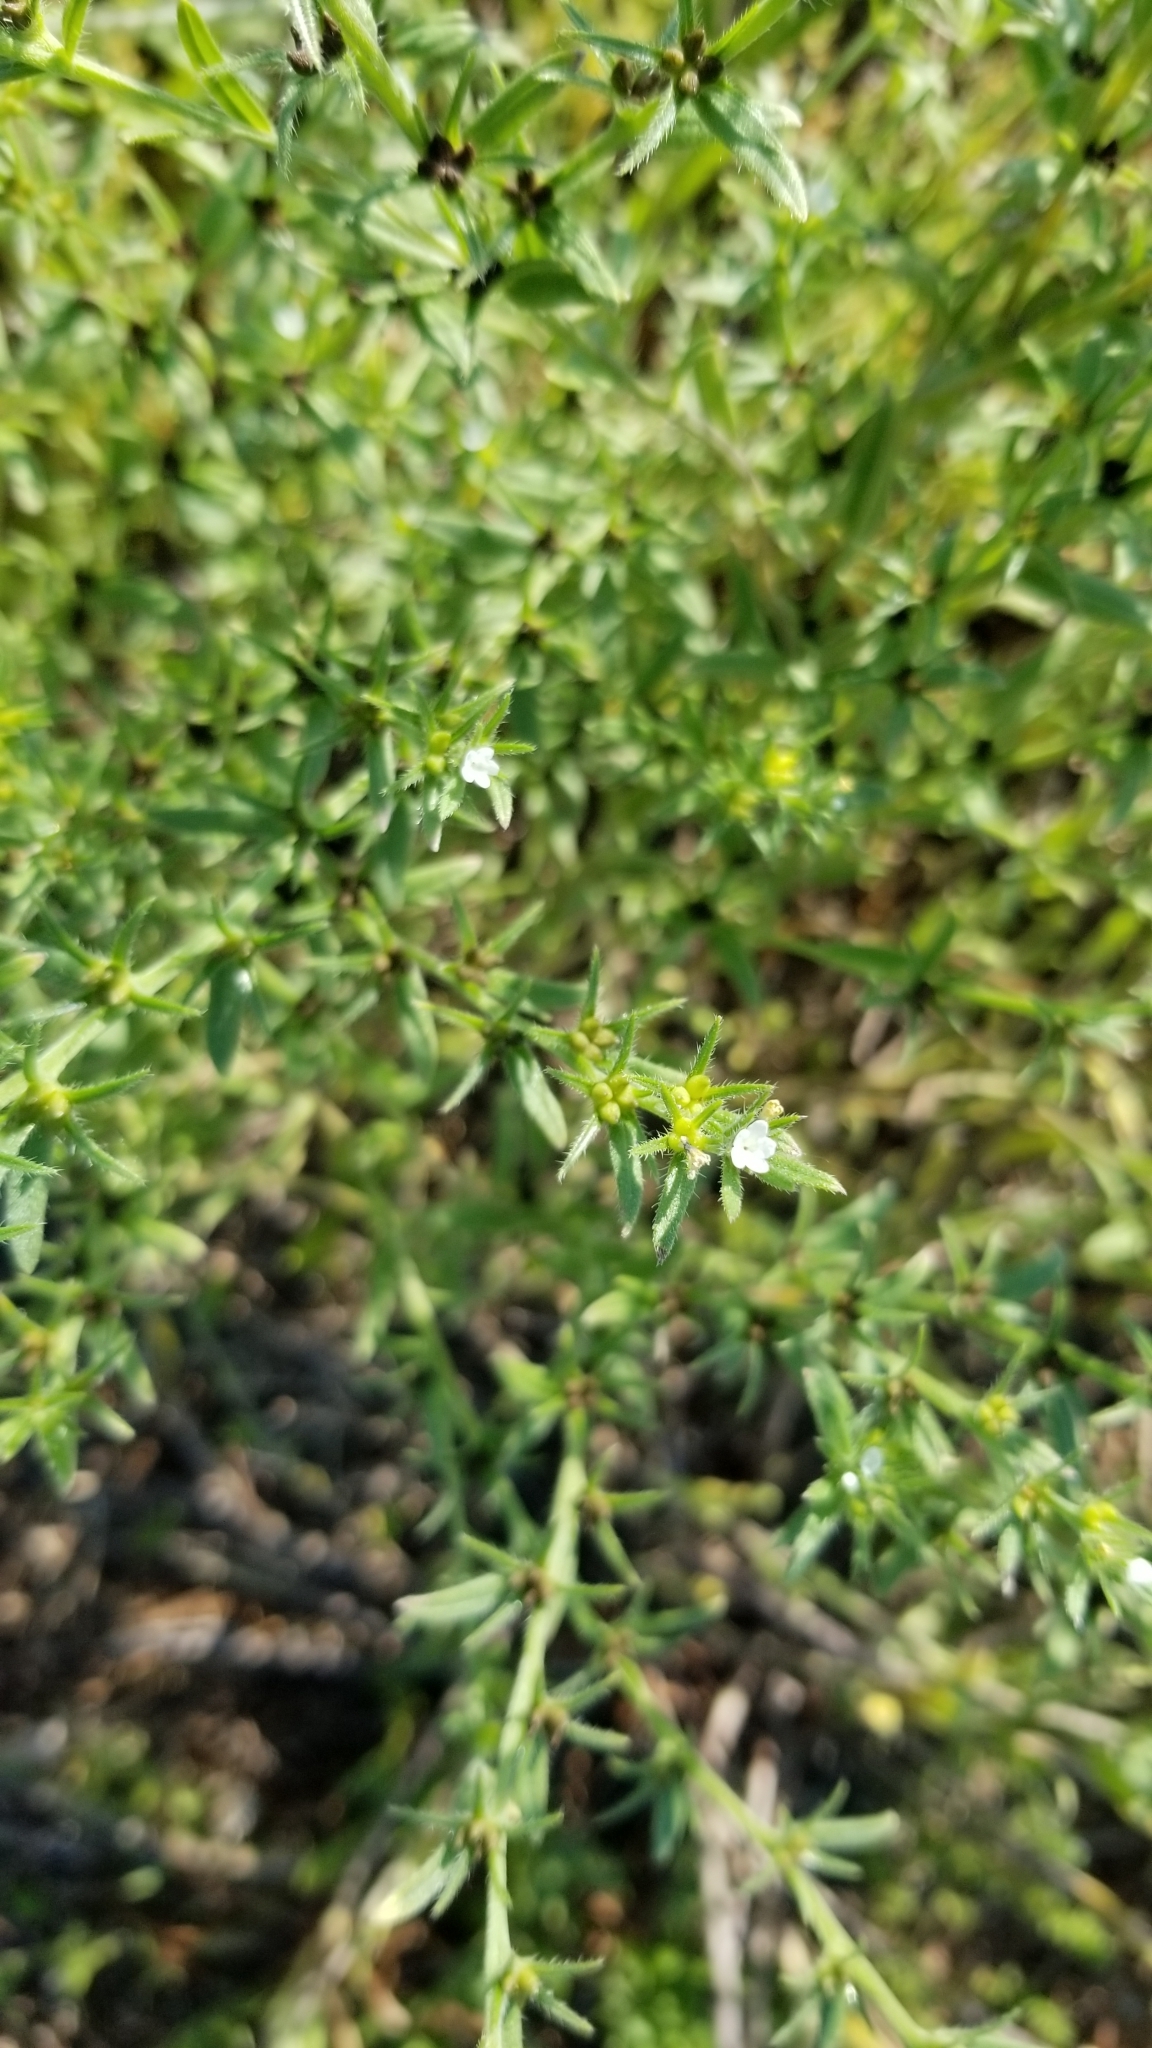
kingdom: Plantae
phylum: Tracheophyta
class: Magnoliopsida
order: Boraginales
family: Boraginaceae
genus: Buglossoides
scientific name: Buglossoides arvensis
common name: Corn gromwell
